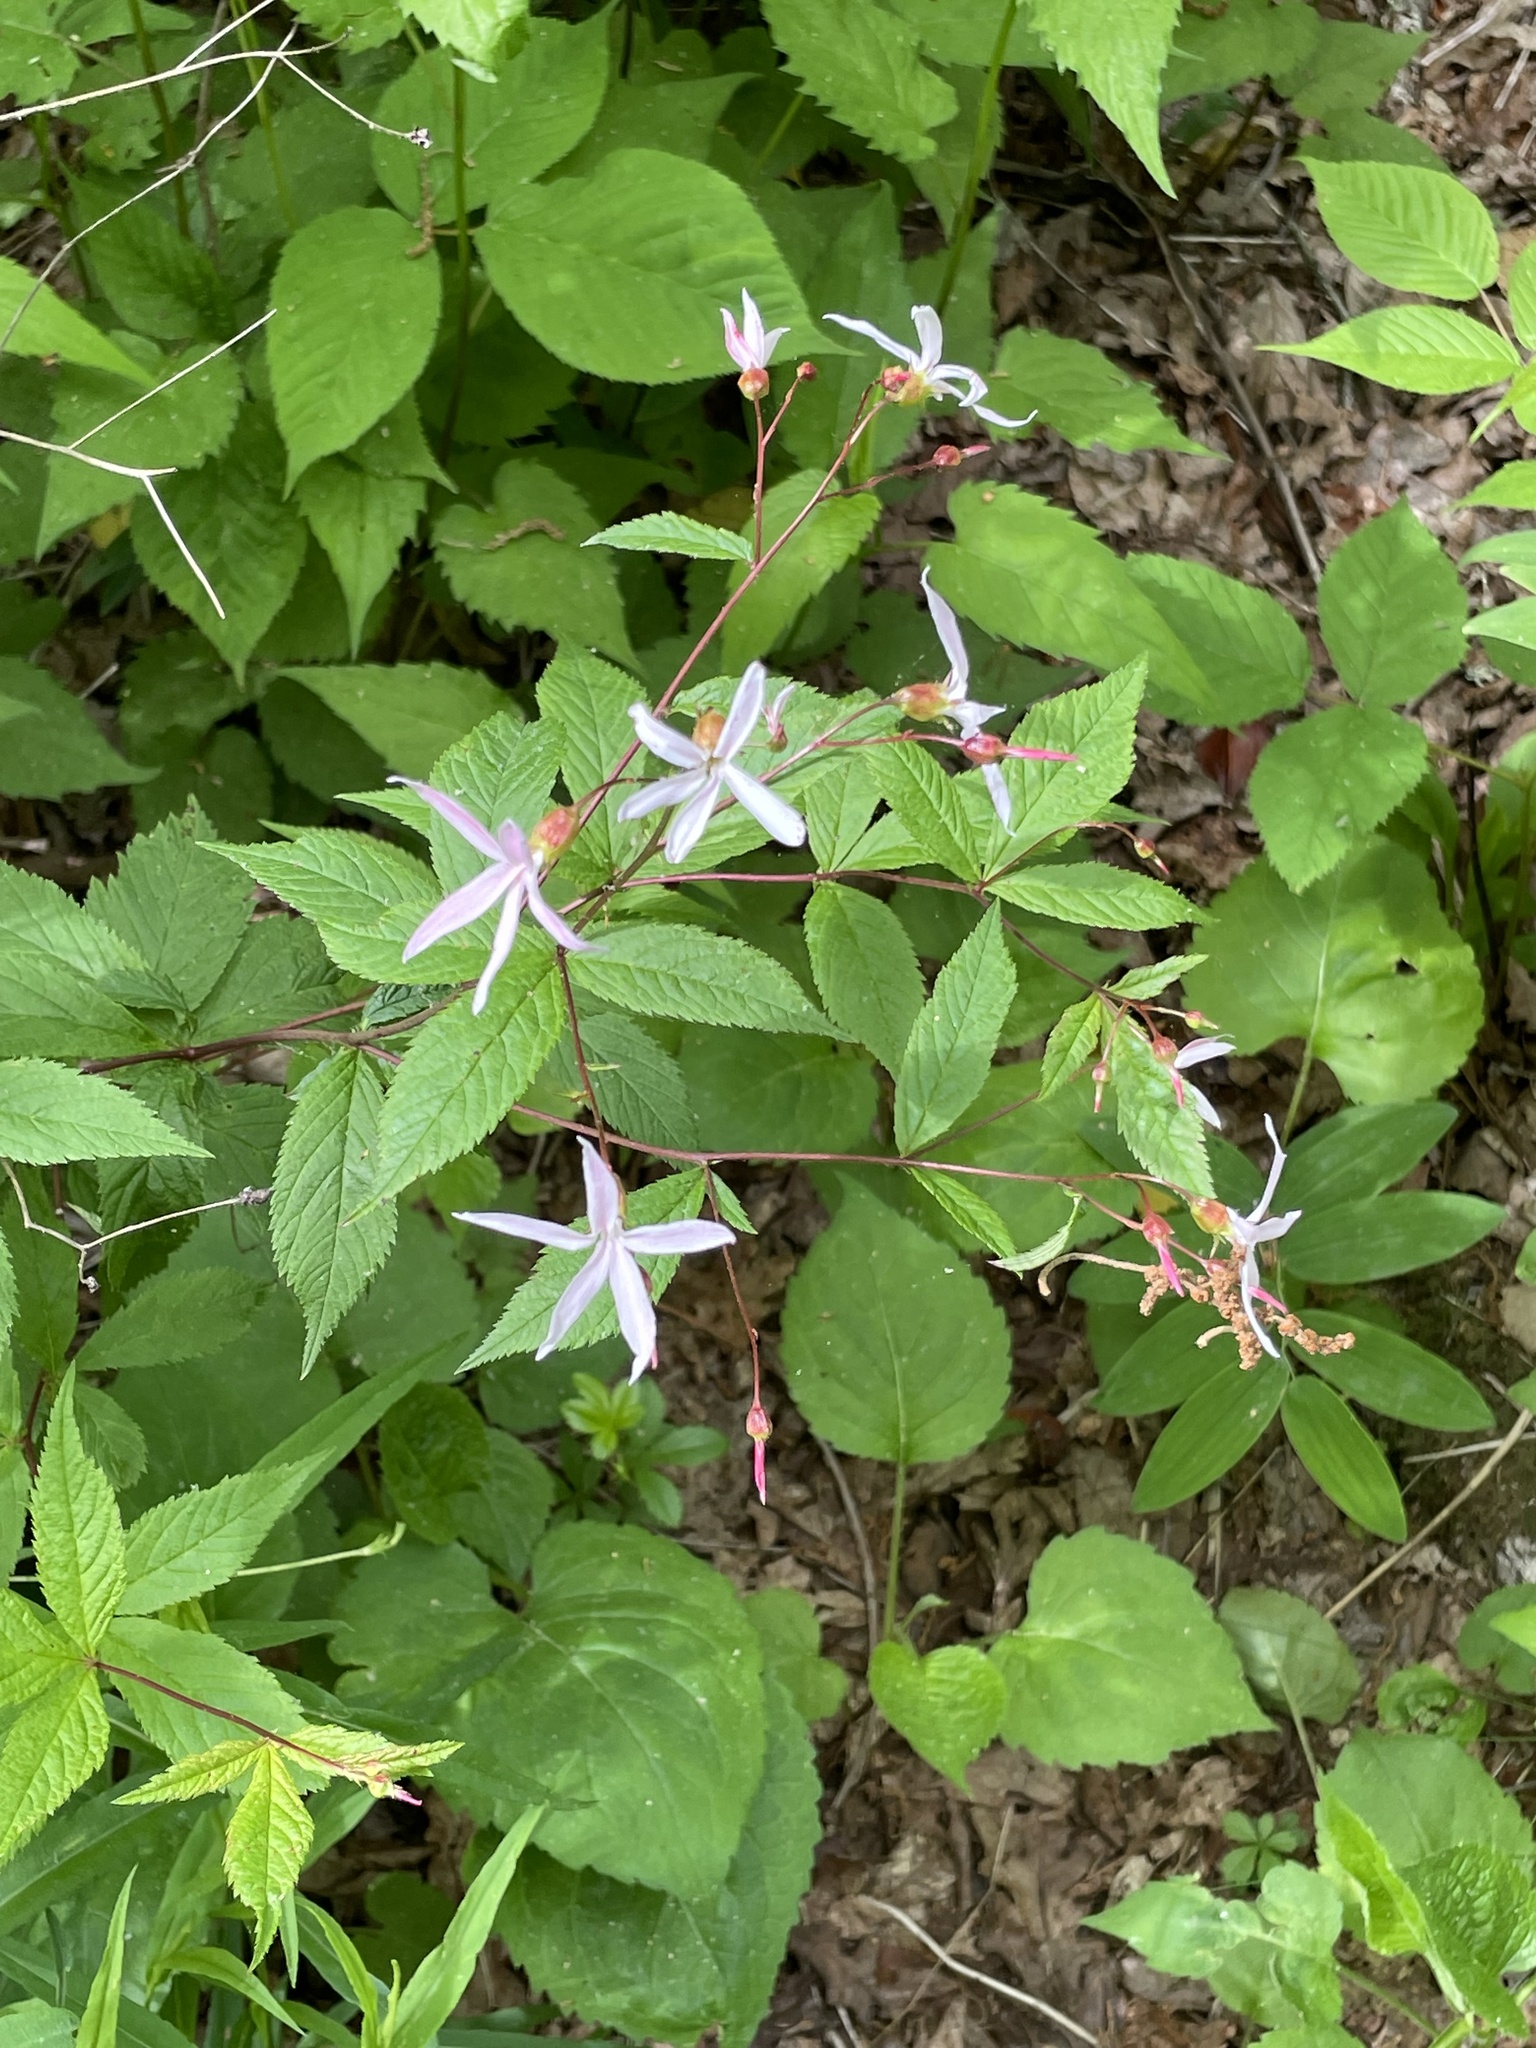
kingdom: Plantae
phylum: Tracheophyta
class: Magnoliopsida
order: Rosales
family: Rosaceae
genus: Gillenia
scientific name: Gillenia trifoliata
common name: Bowman's-root
